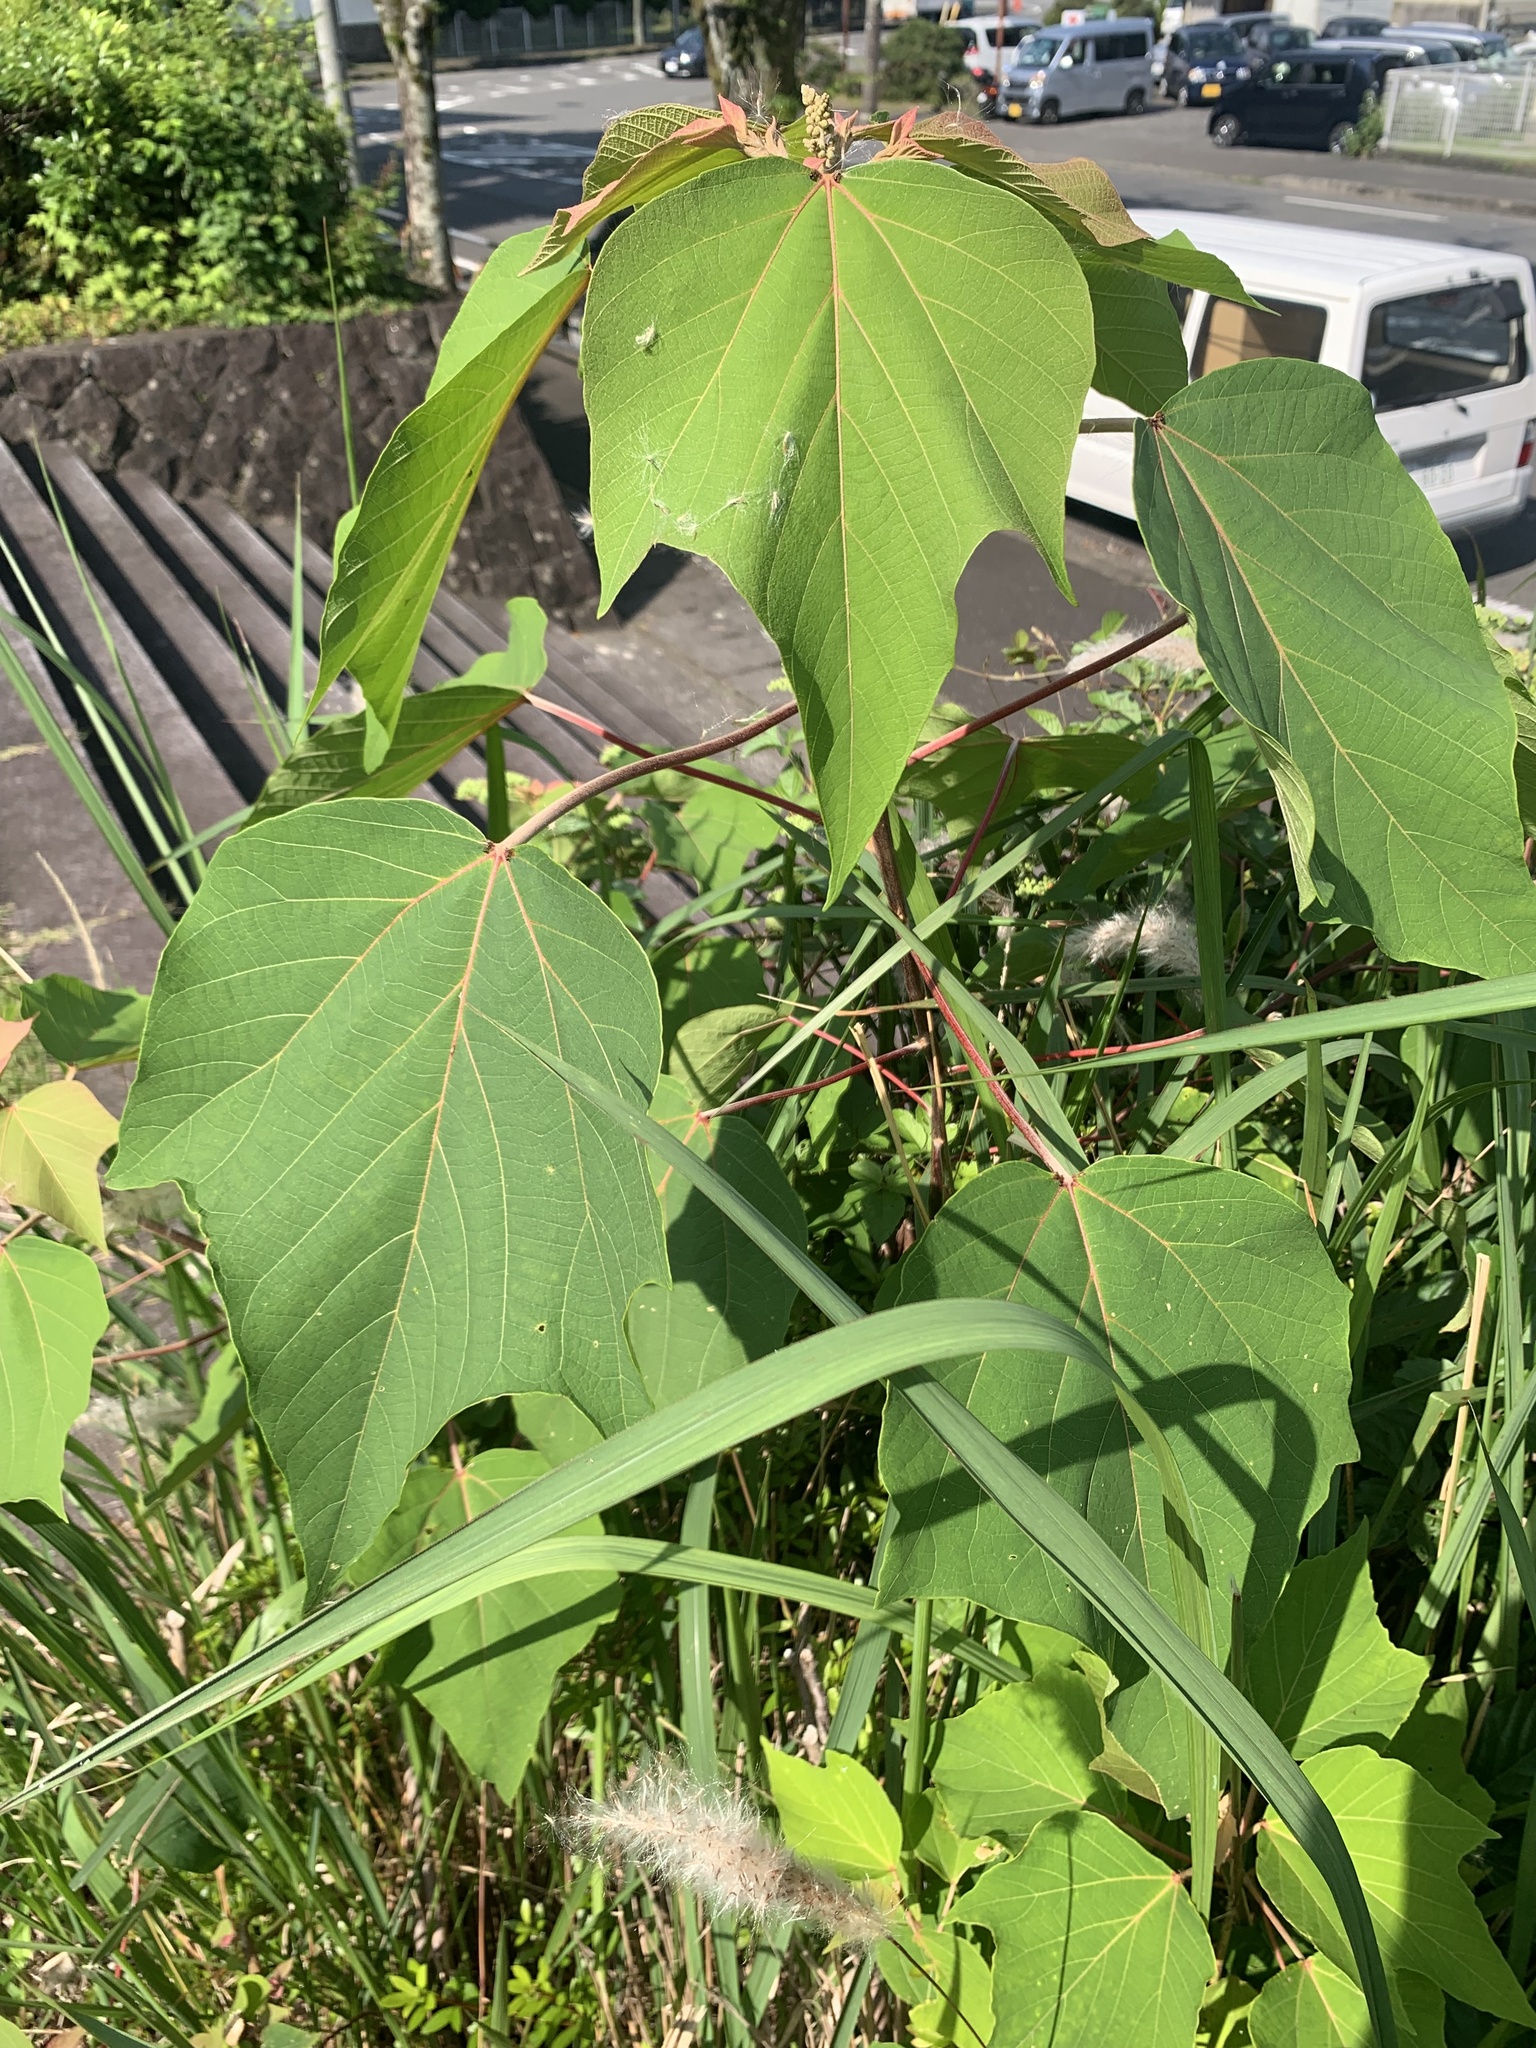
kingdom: Plantae
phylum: Tracheophyta
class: Magnoliopsida
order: Malpighiales
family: Euphorbiaceae
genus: Mallotus
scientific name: Mallotus japonicus
